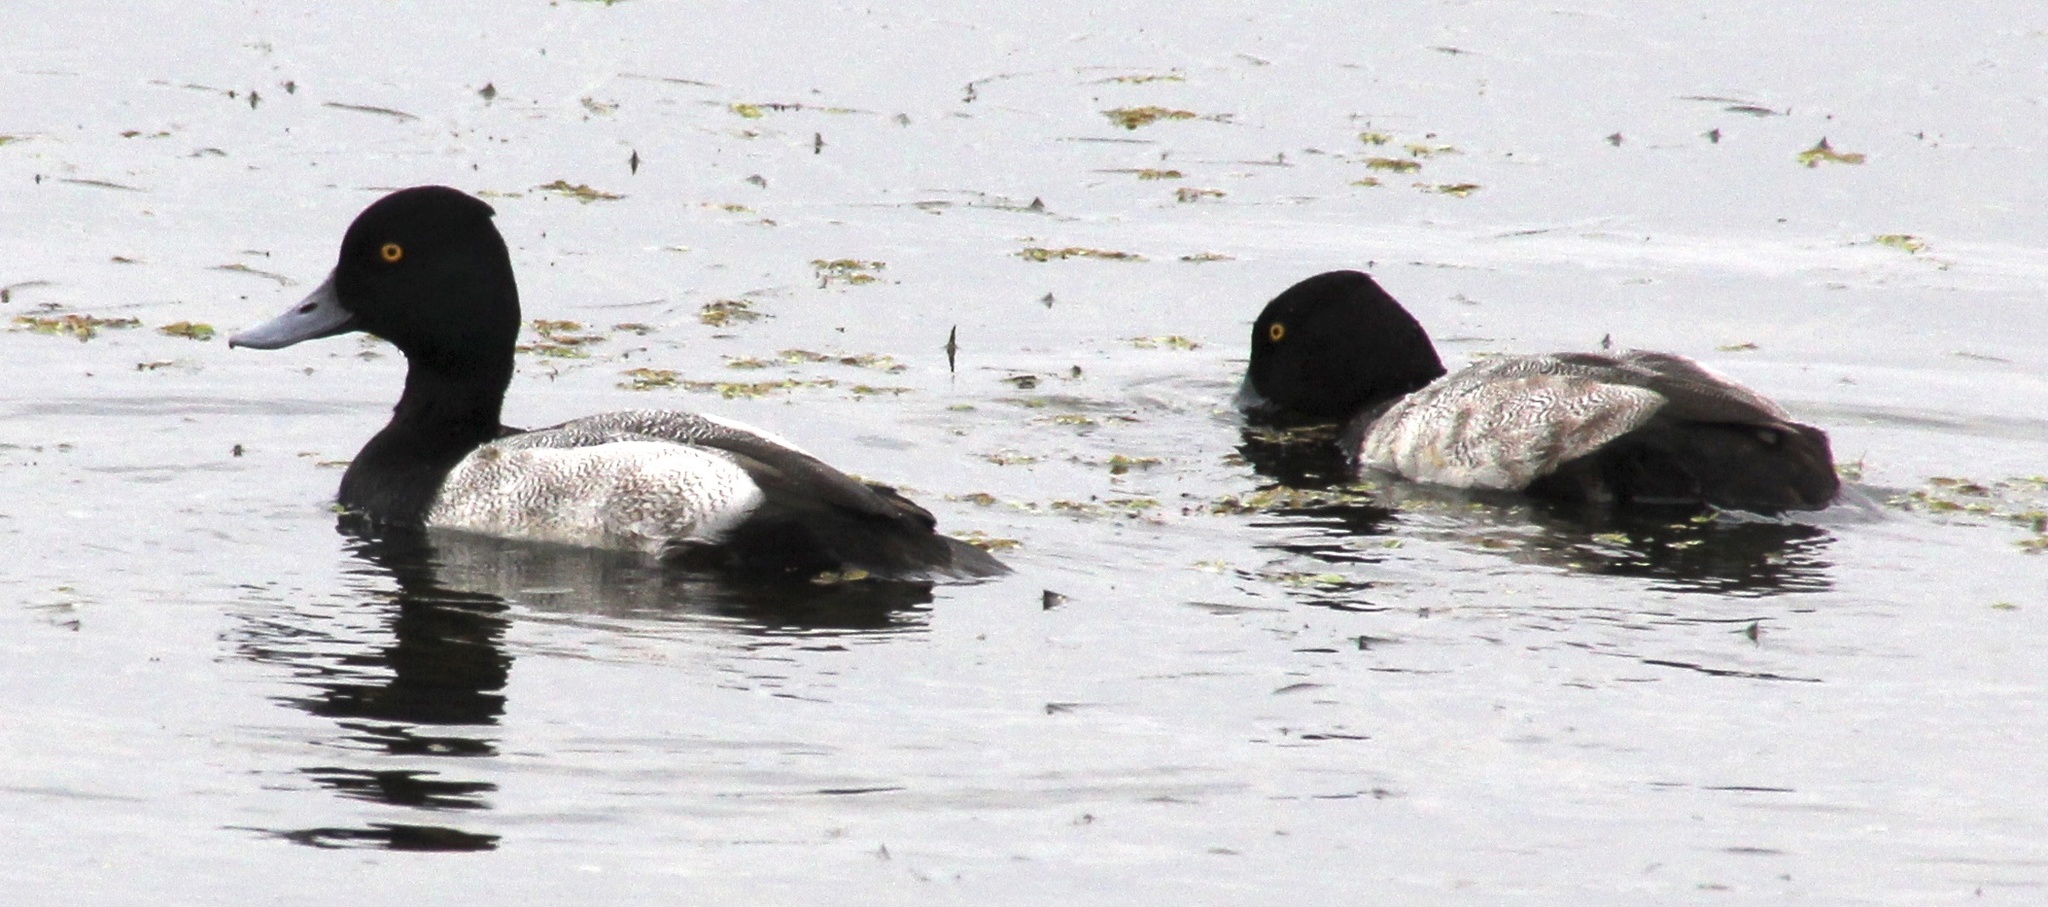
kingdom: Animalia
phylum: Chordata
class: Aves
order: Anseriformes
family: Anatidae
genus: Aythya
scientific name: Aythya affinis
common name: Lesser scaup
